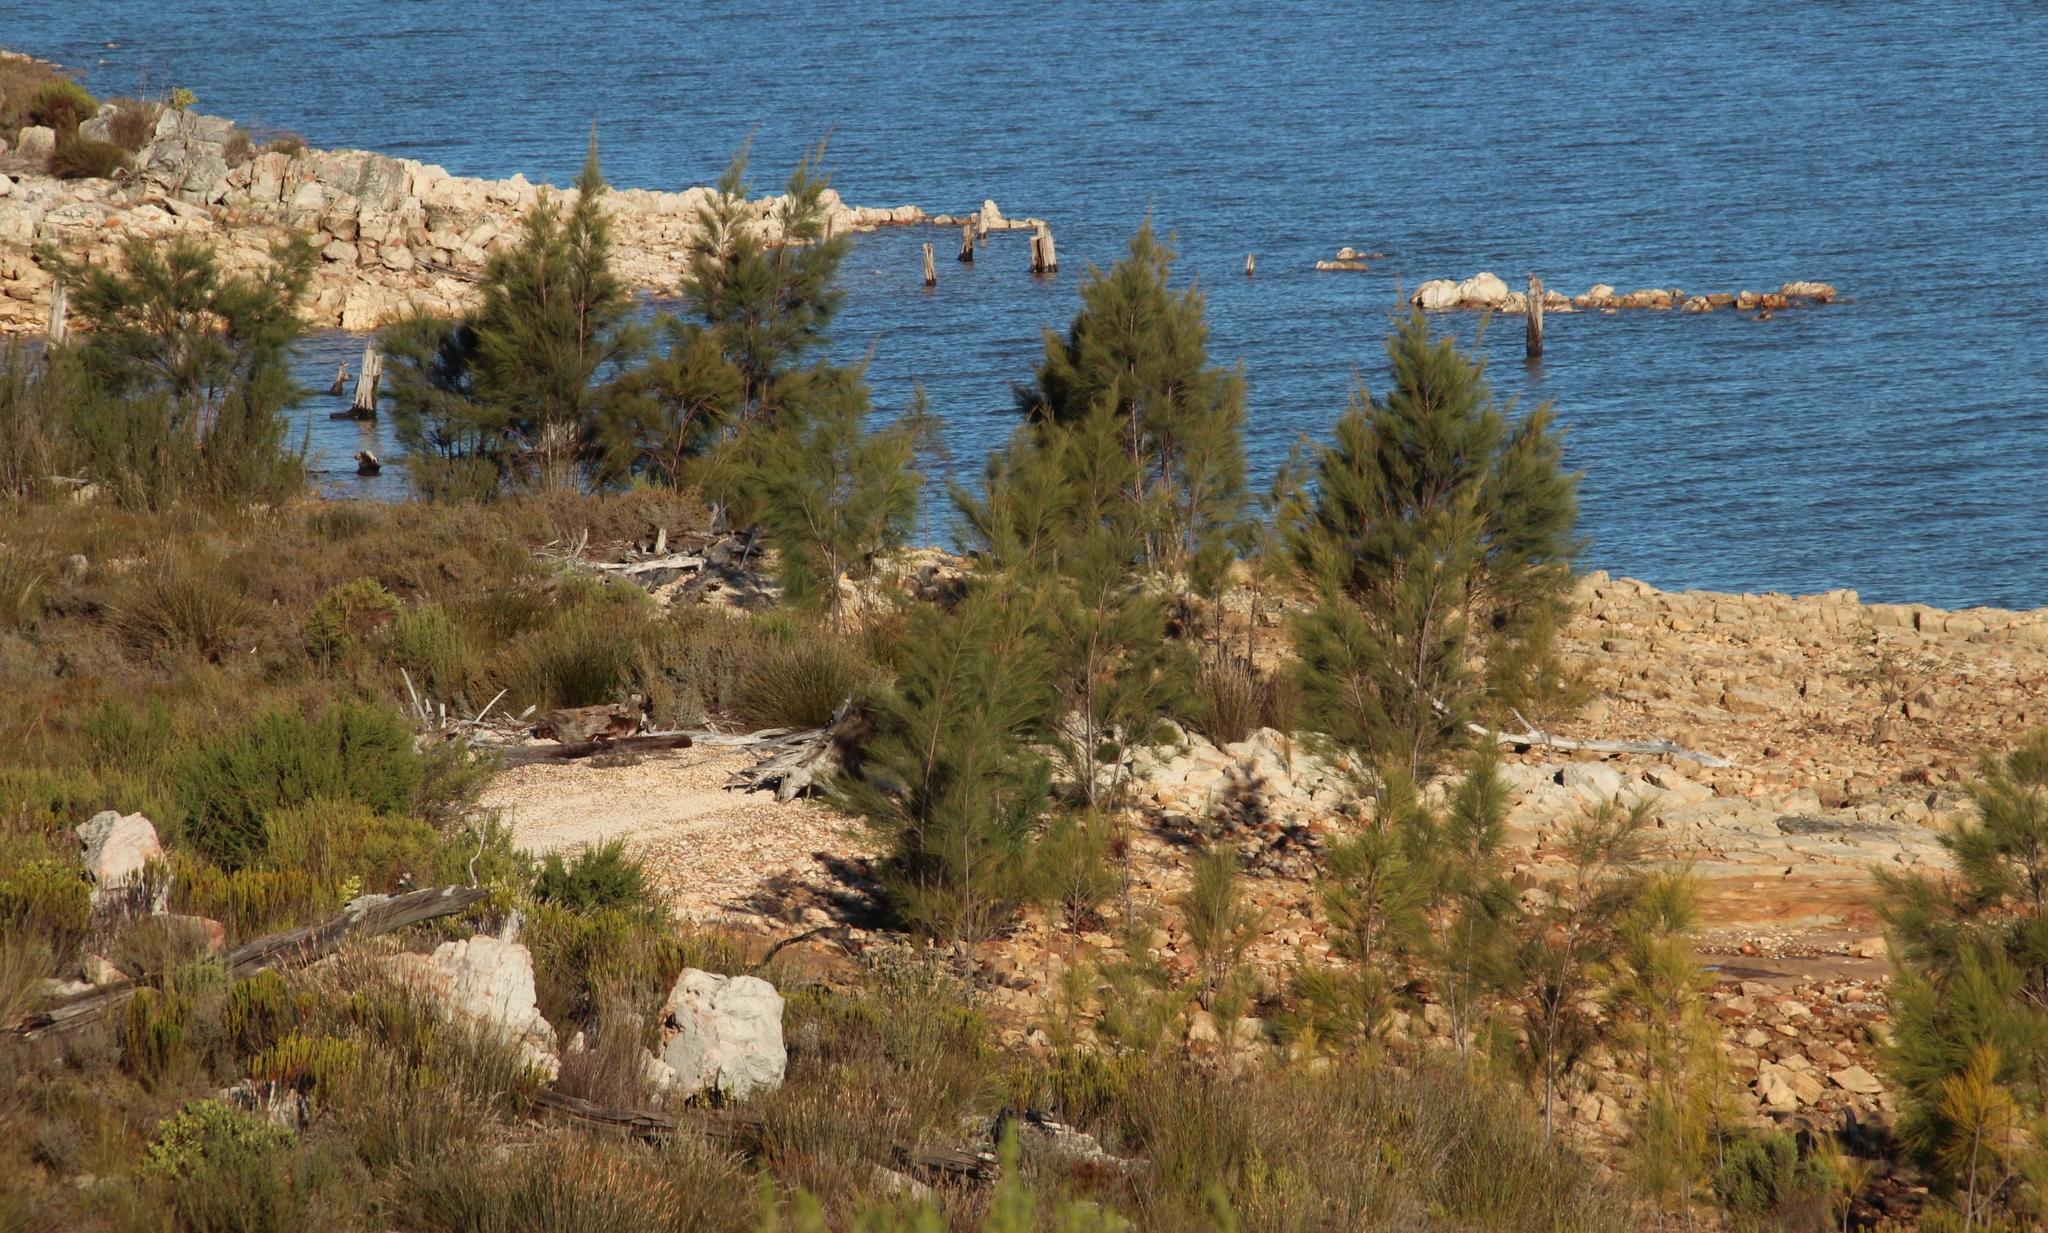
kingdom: Plantae
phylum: Tracheophyta
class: Magnoliopsida
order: Fagales
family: Casuarinaceae
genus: Casuarina
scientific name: Casuarina cunninghamiana
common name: River sheoak
